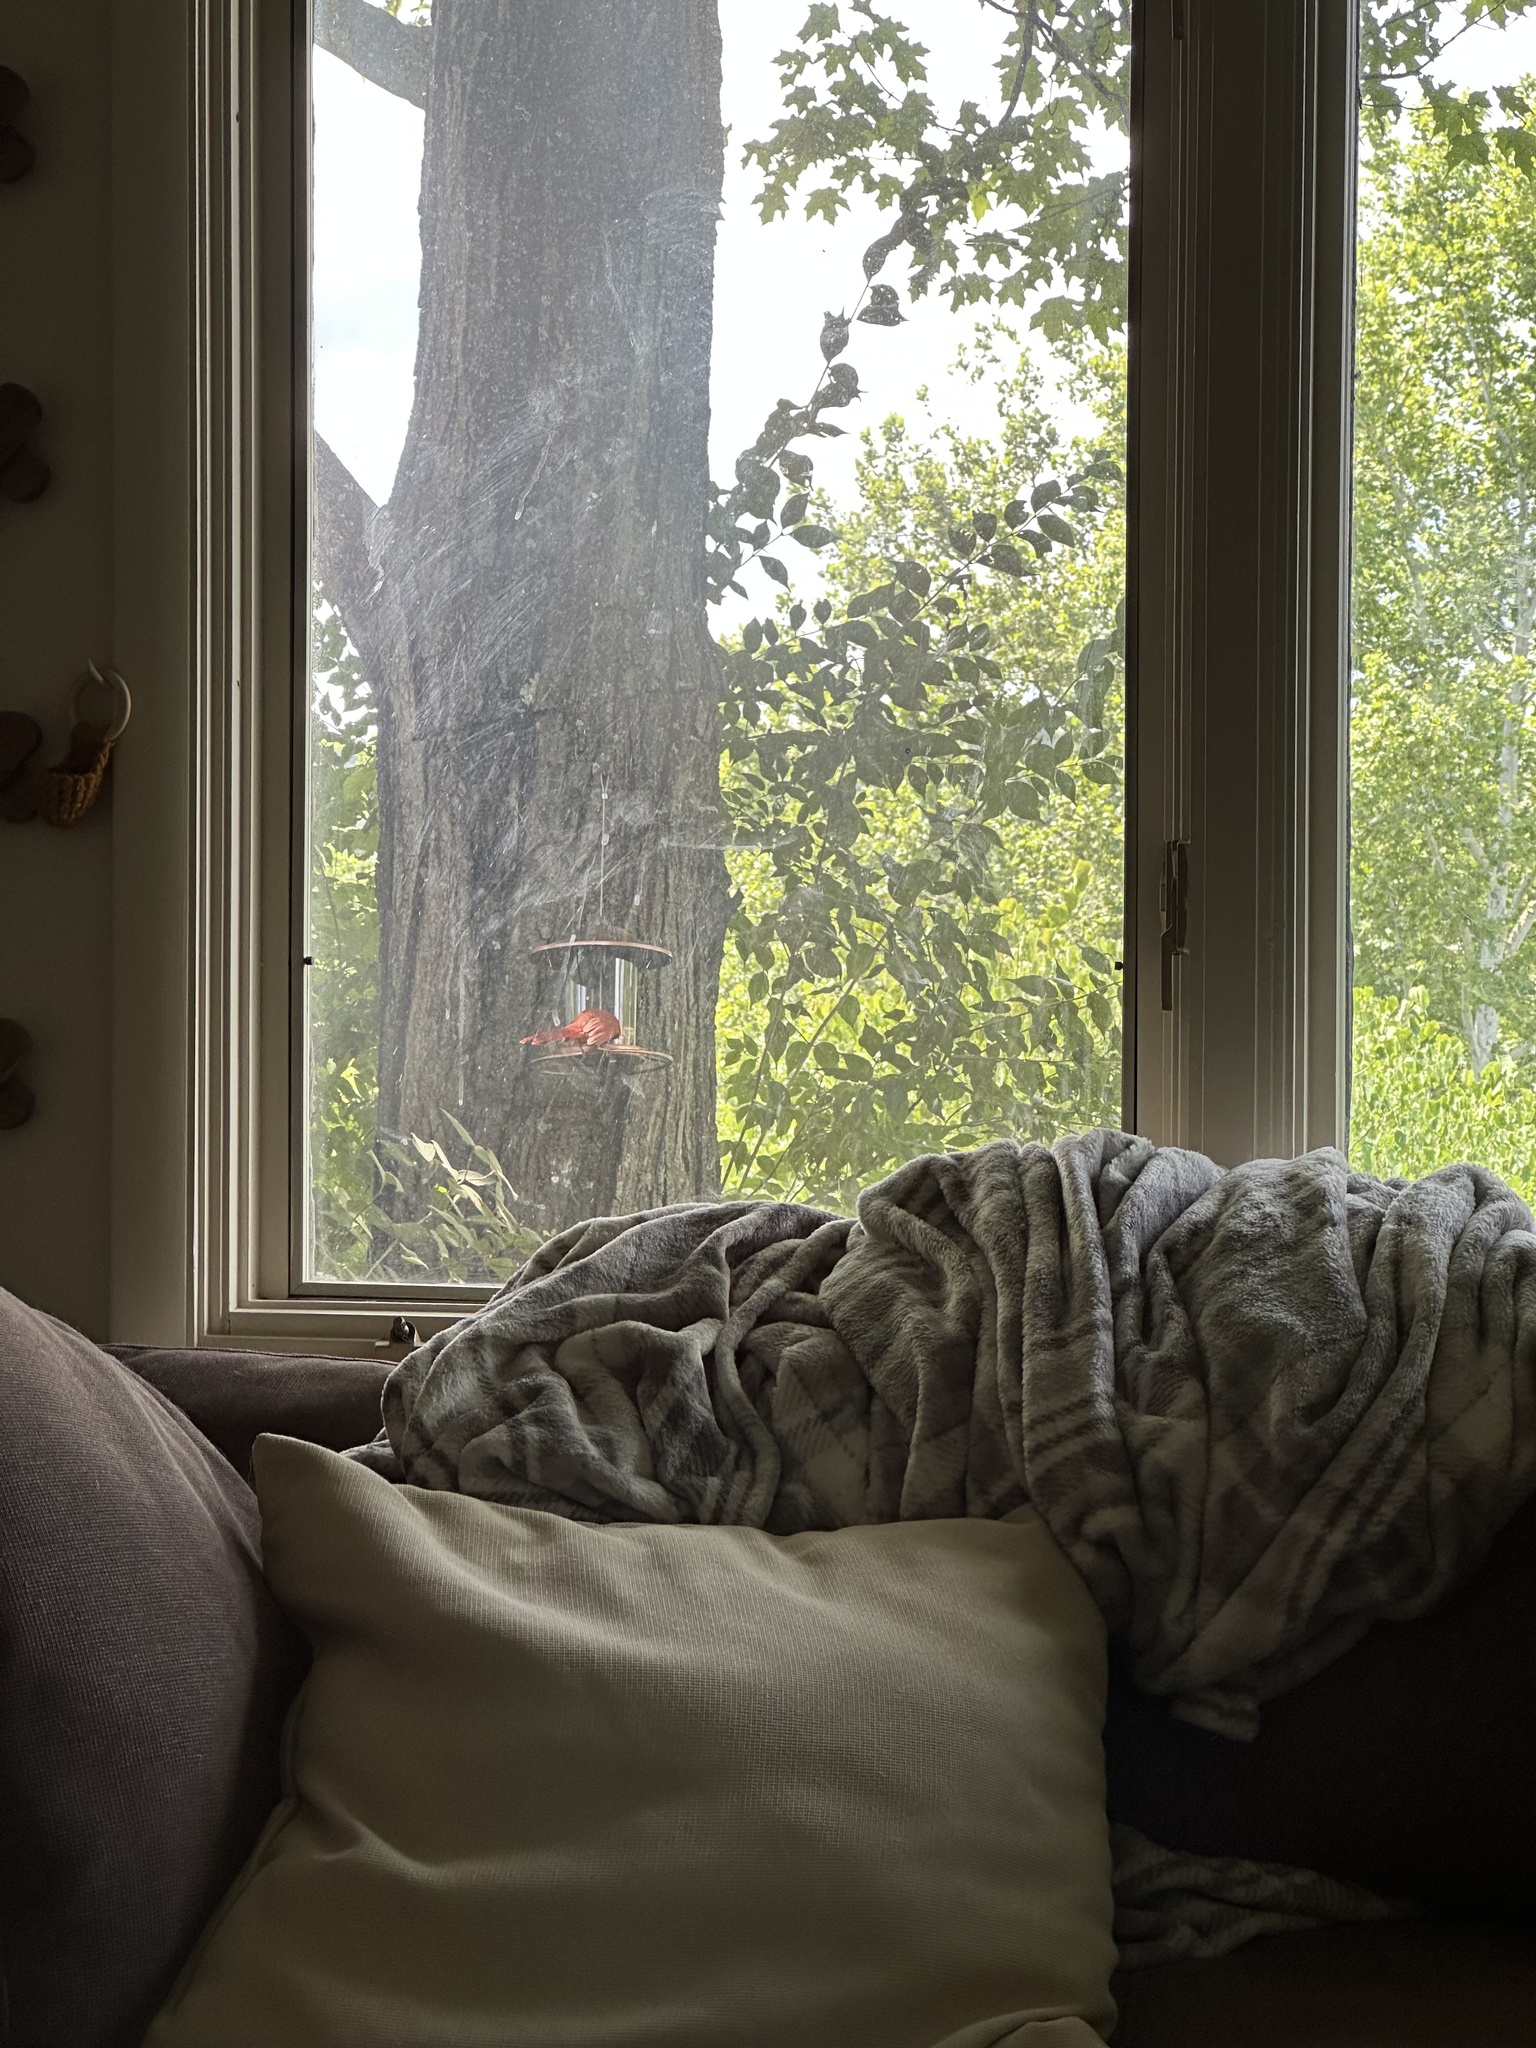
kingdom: Animalia
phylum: Chordata
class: Aves
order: Passeriformes
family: Cardinalidae
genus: Cardinalis
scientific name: Cardinalis cardinalis
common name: Northern cardinal
